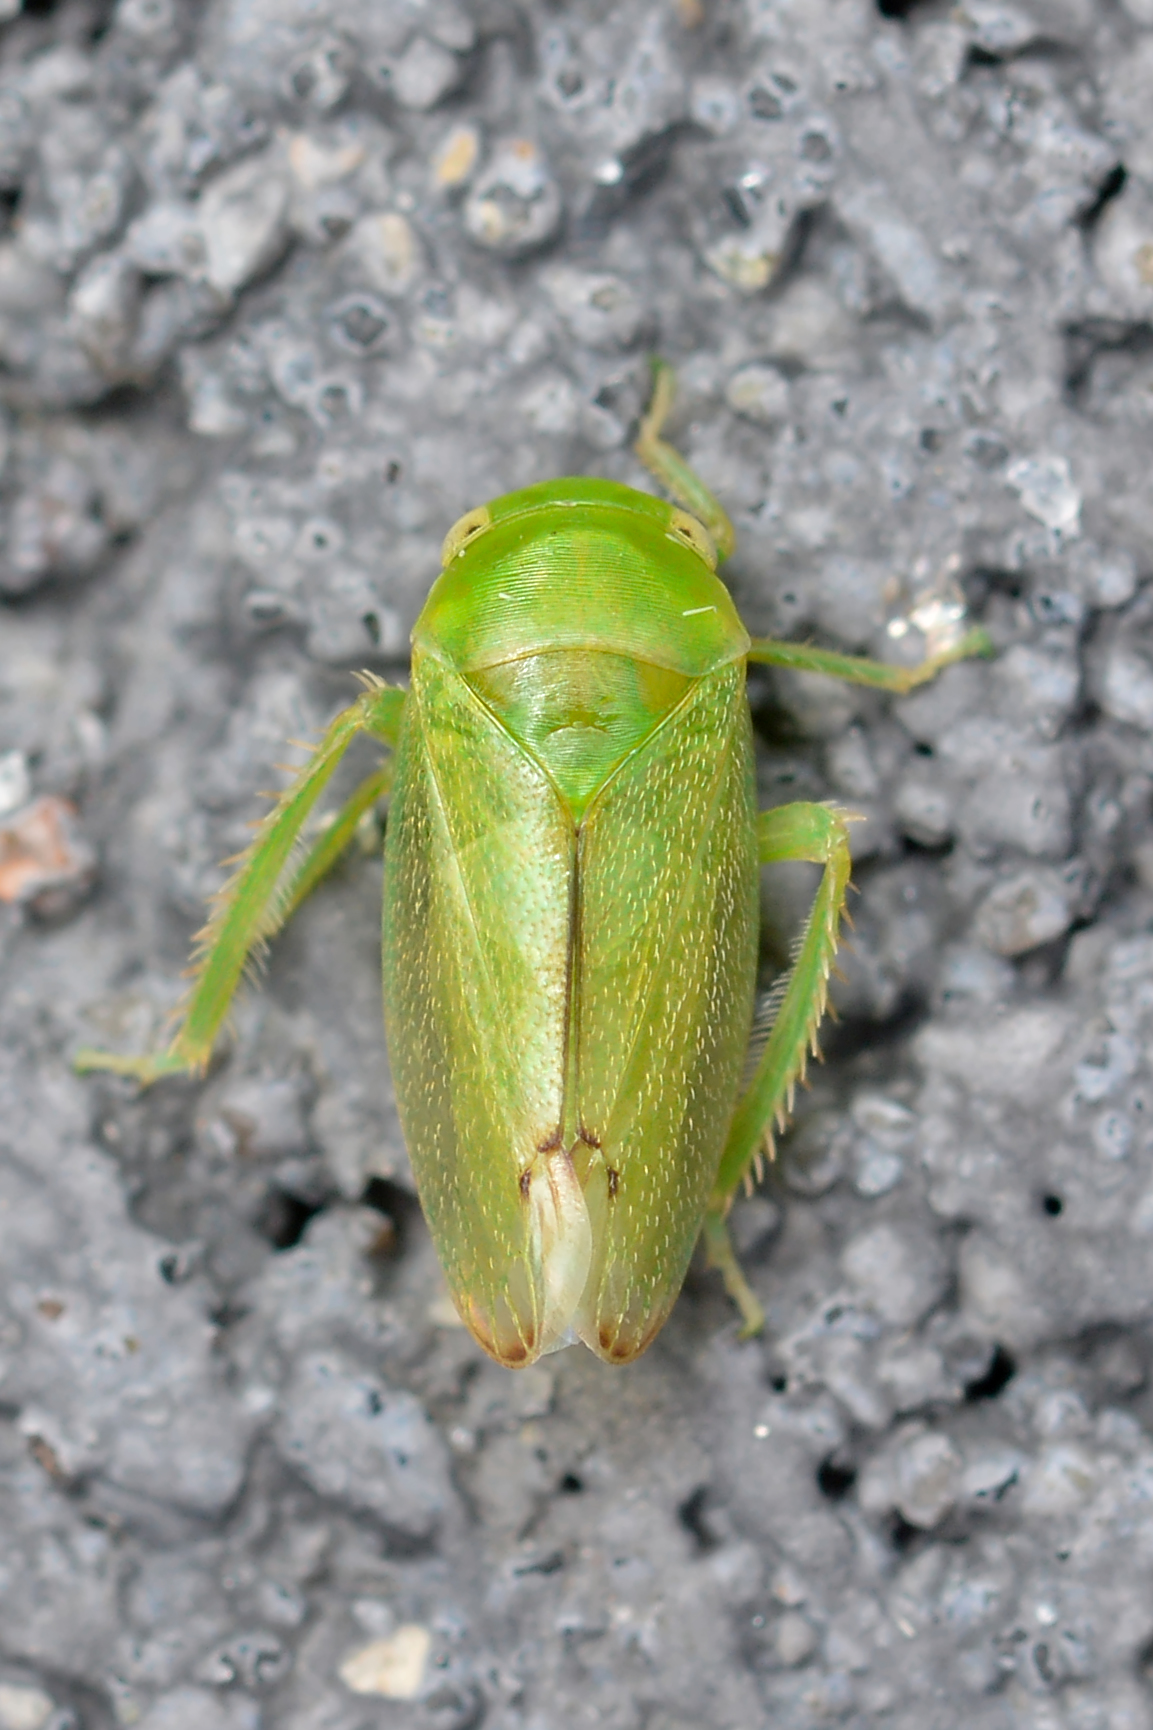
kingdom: Animalia
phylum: Arthropoda
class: Insecta
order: Hemiptera
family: Cicadellidae
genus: Stragania
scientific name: Stragania alabamensis
